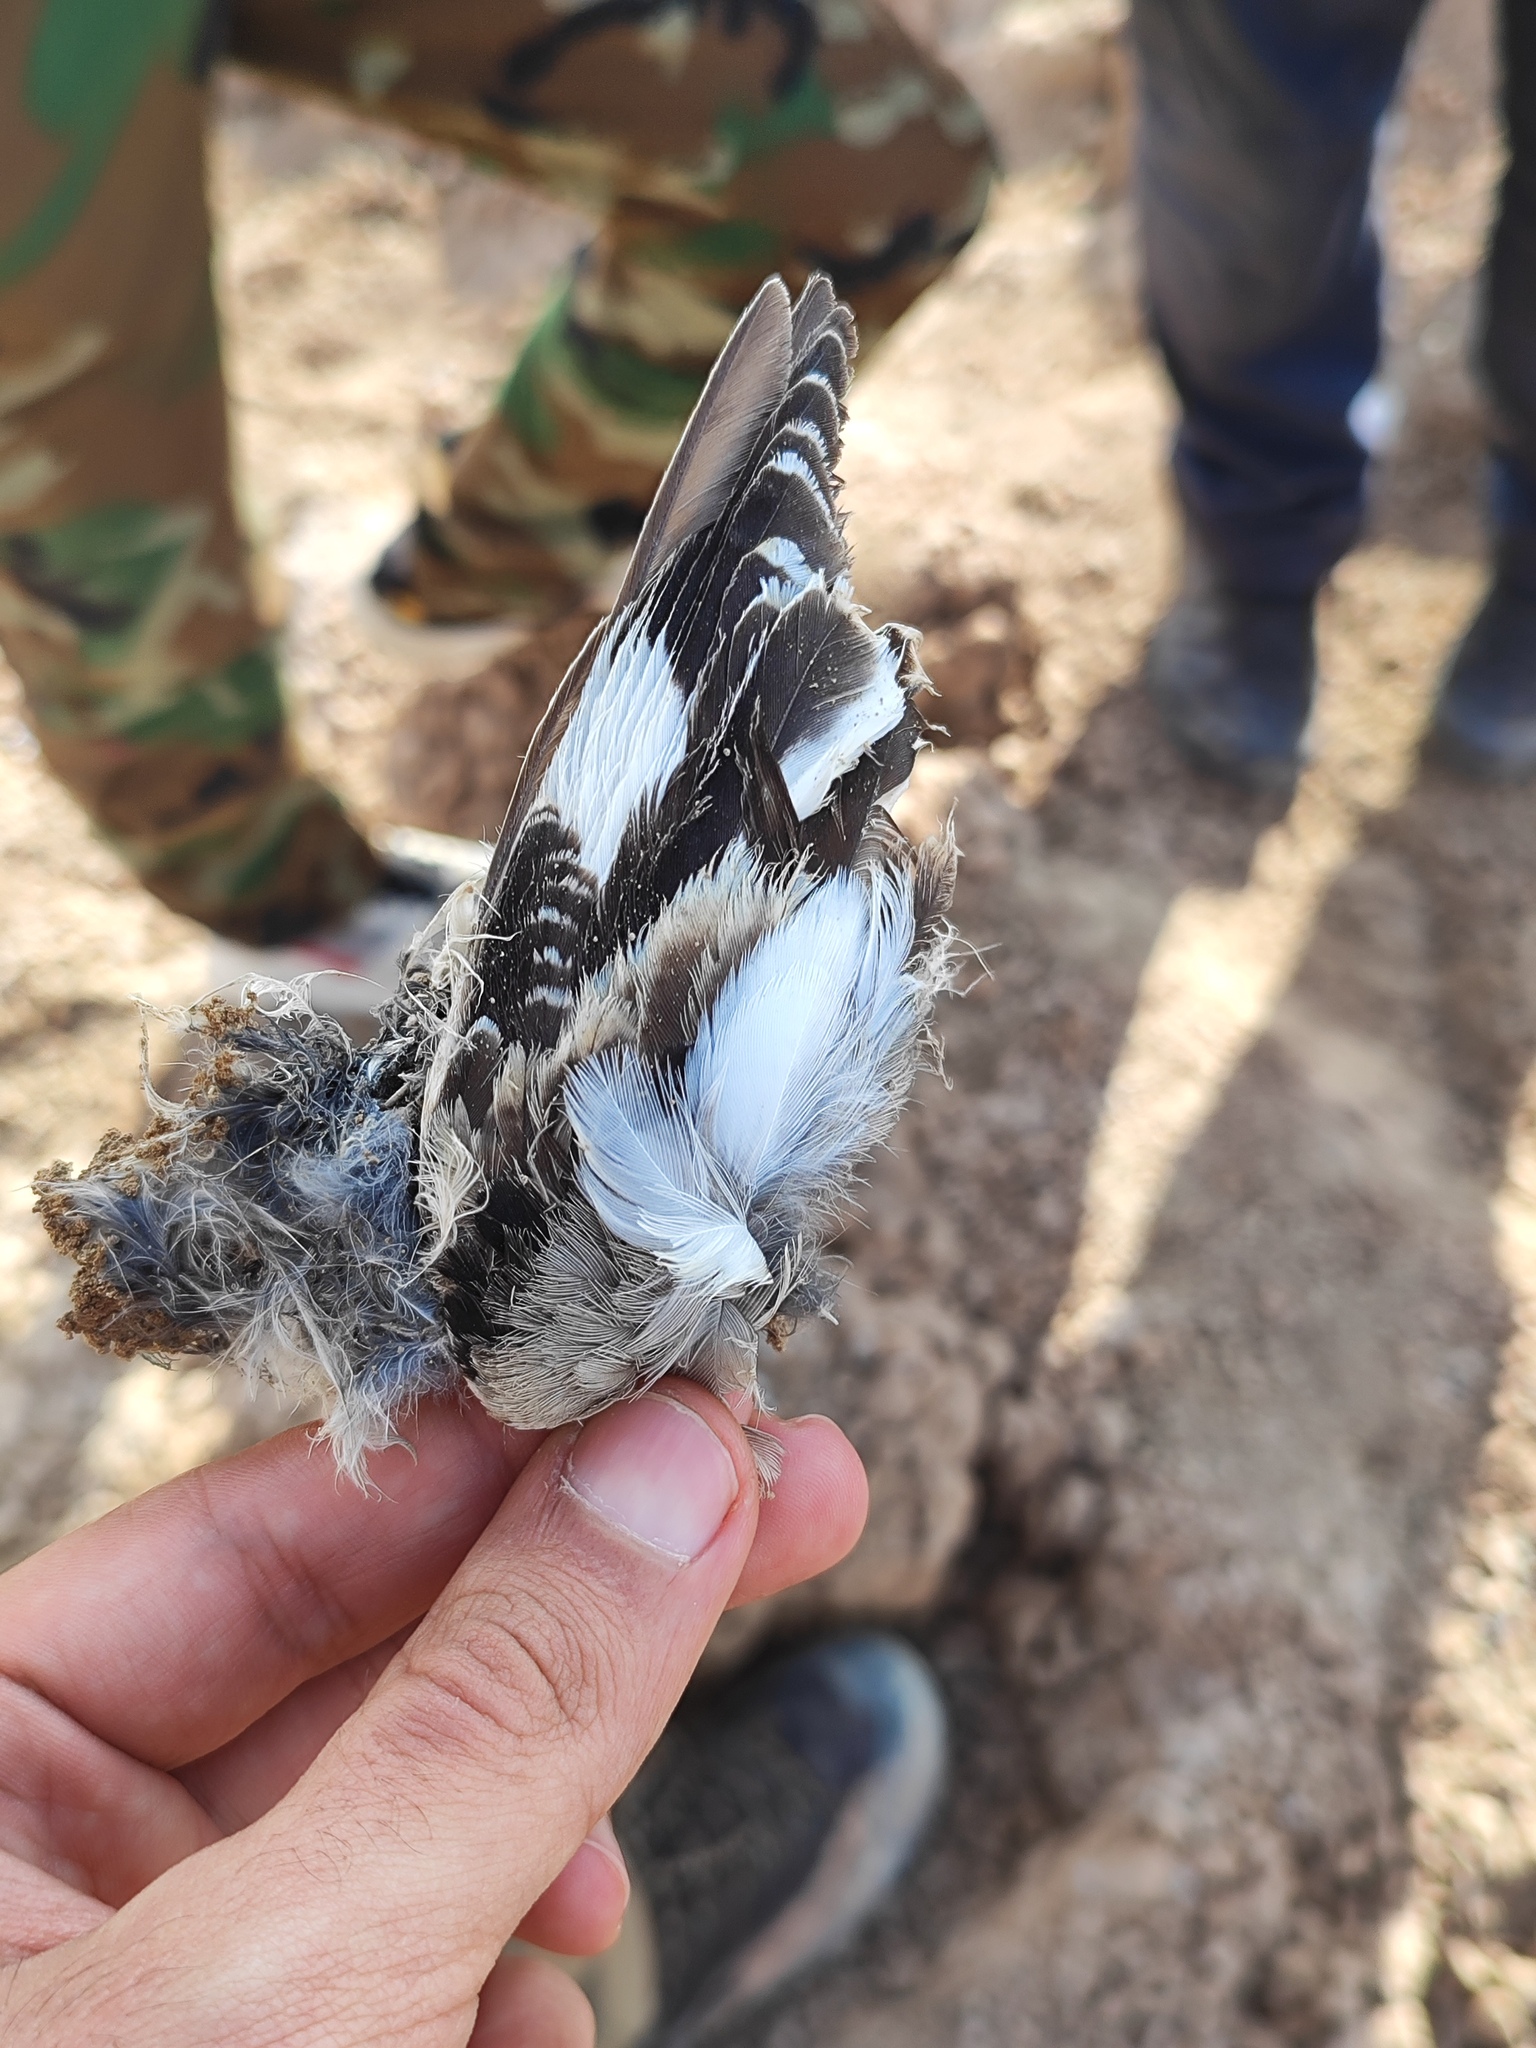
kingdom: Animalia
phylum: Chordata
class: Aves
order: Passeriformes
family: Laniidae
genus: Lanius
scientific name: Lanius excubitor
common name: Great grey shrike
